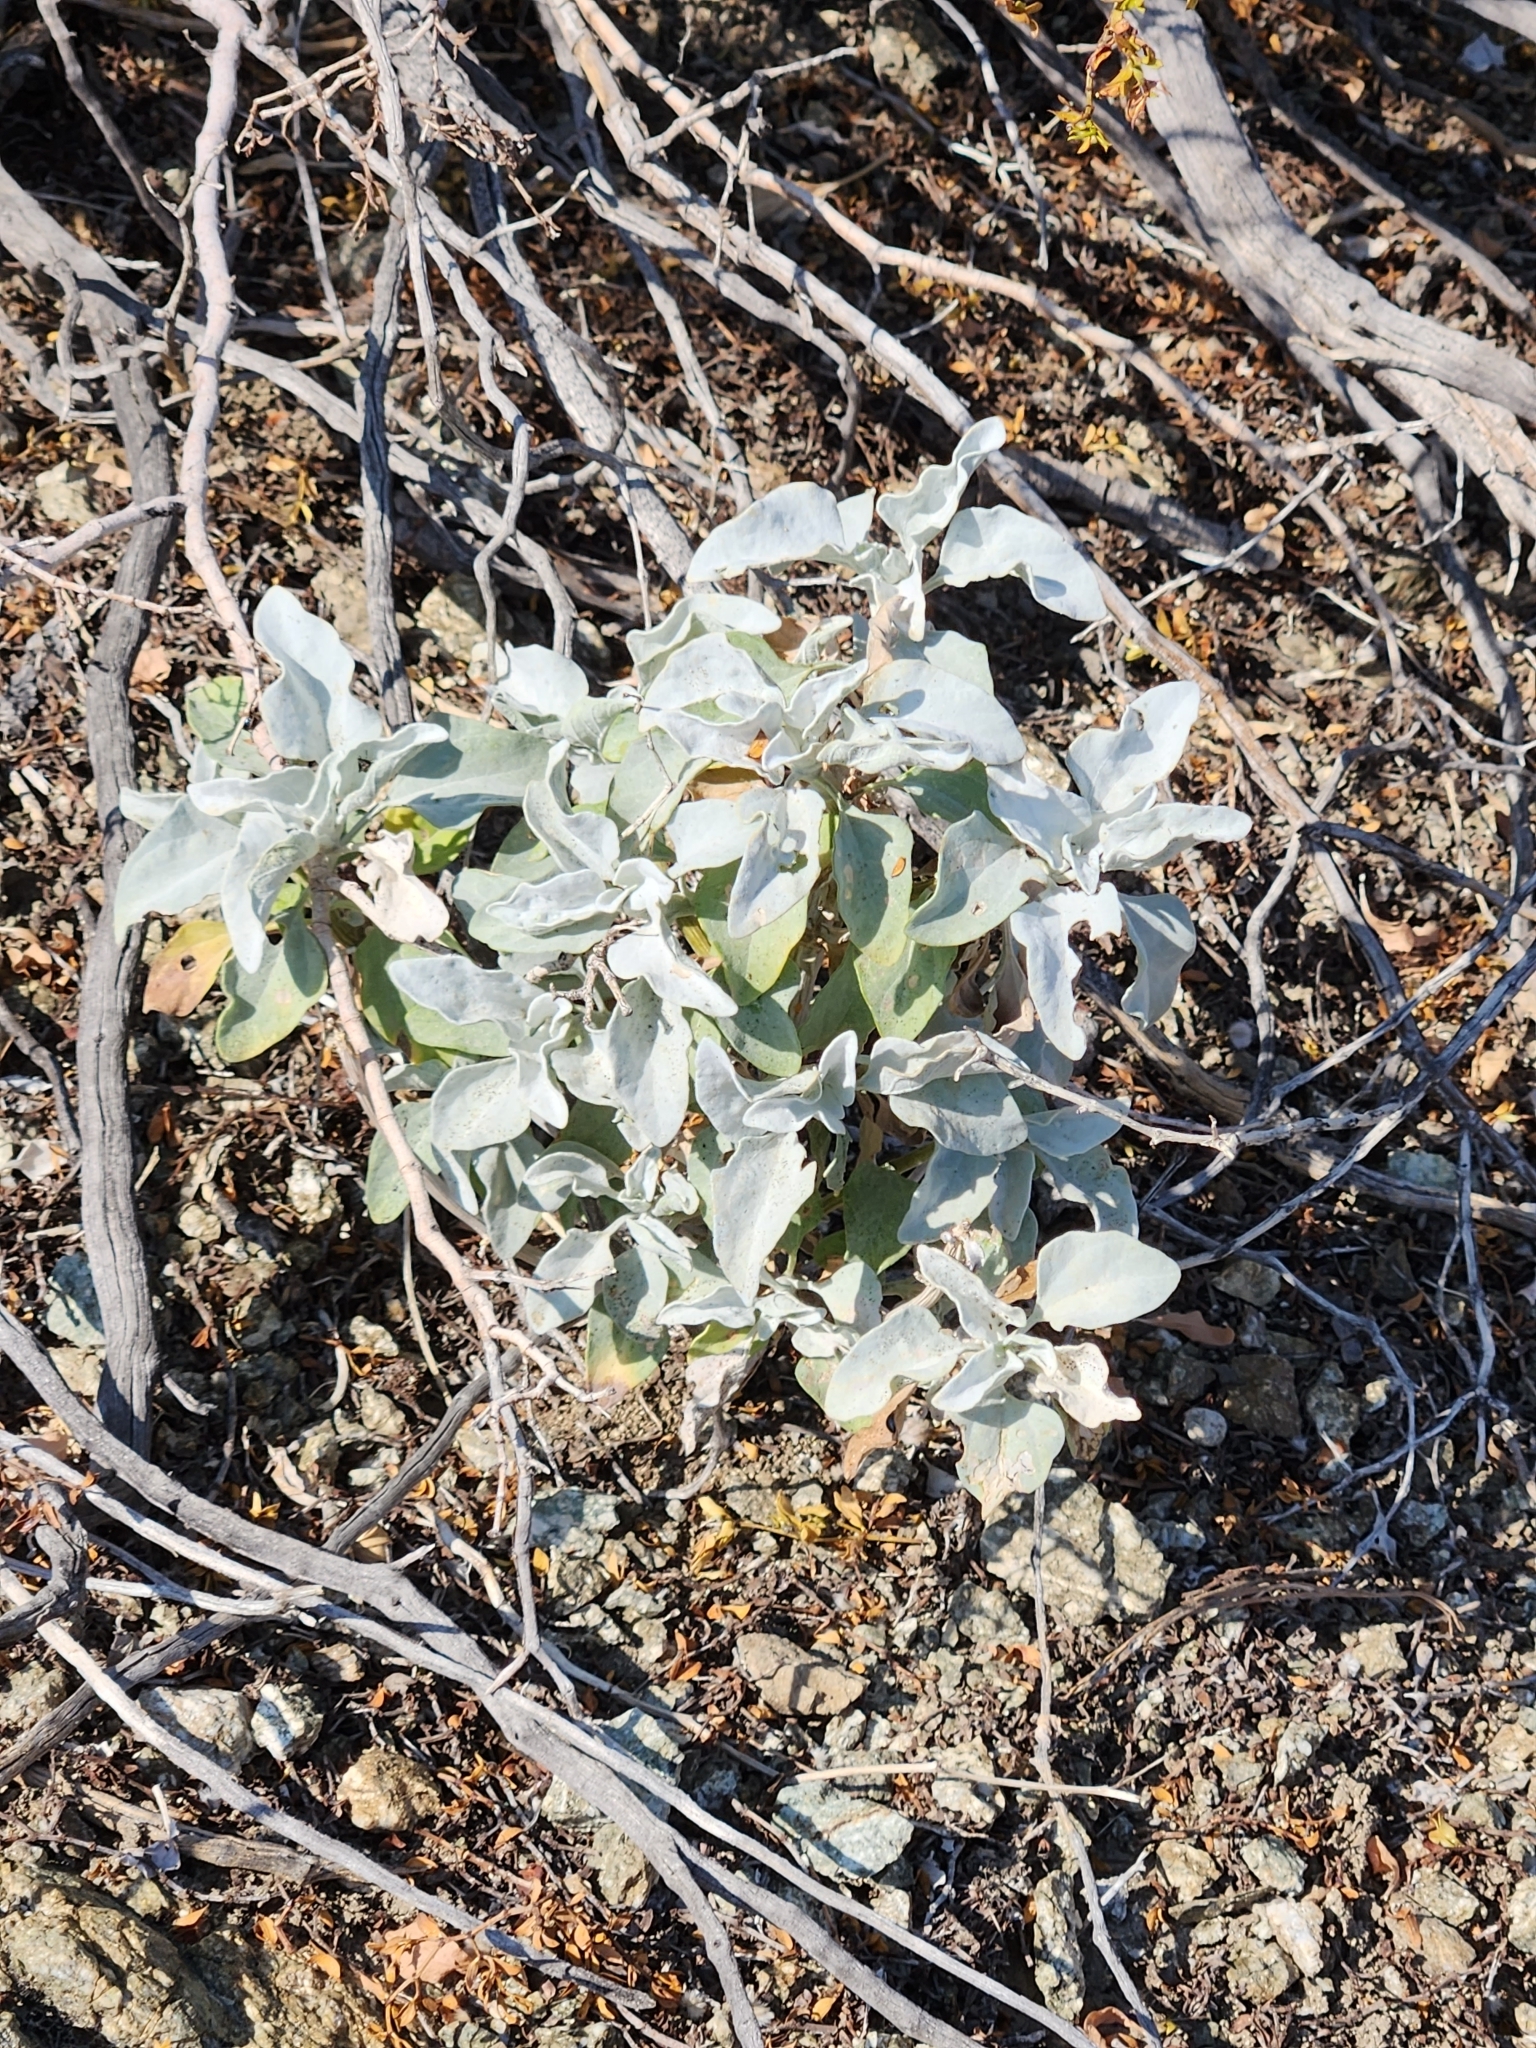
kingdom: Plantae
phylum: Tracheophyta
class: Magnoliopsida
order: Asterales
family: Asteraceae
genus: Encelia
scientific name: Encelia farinosa
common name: Brittlebush
